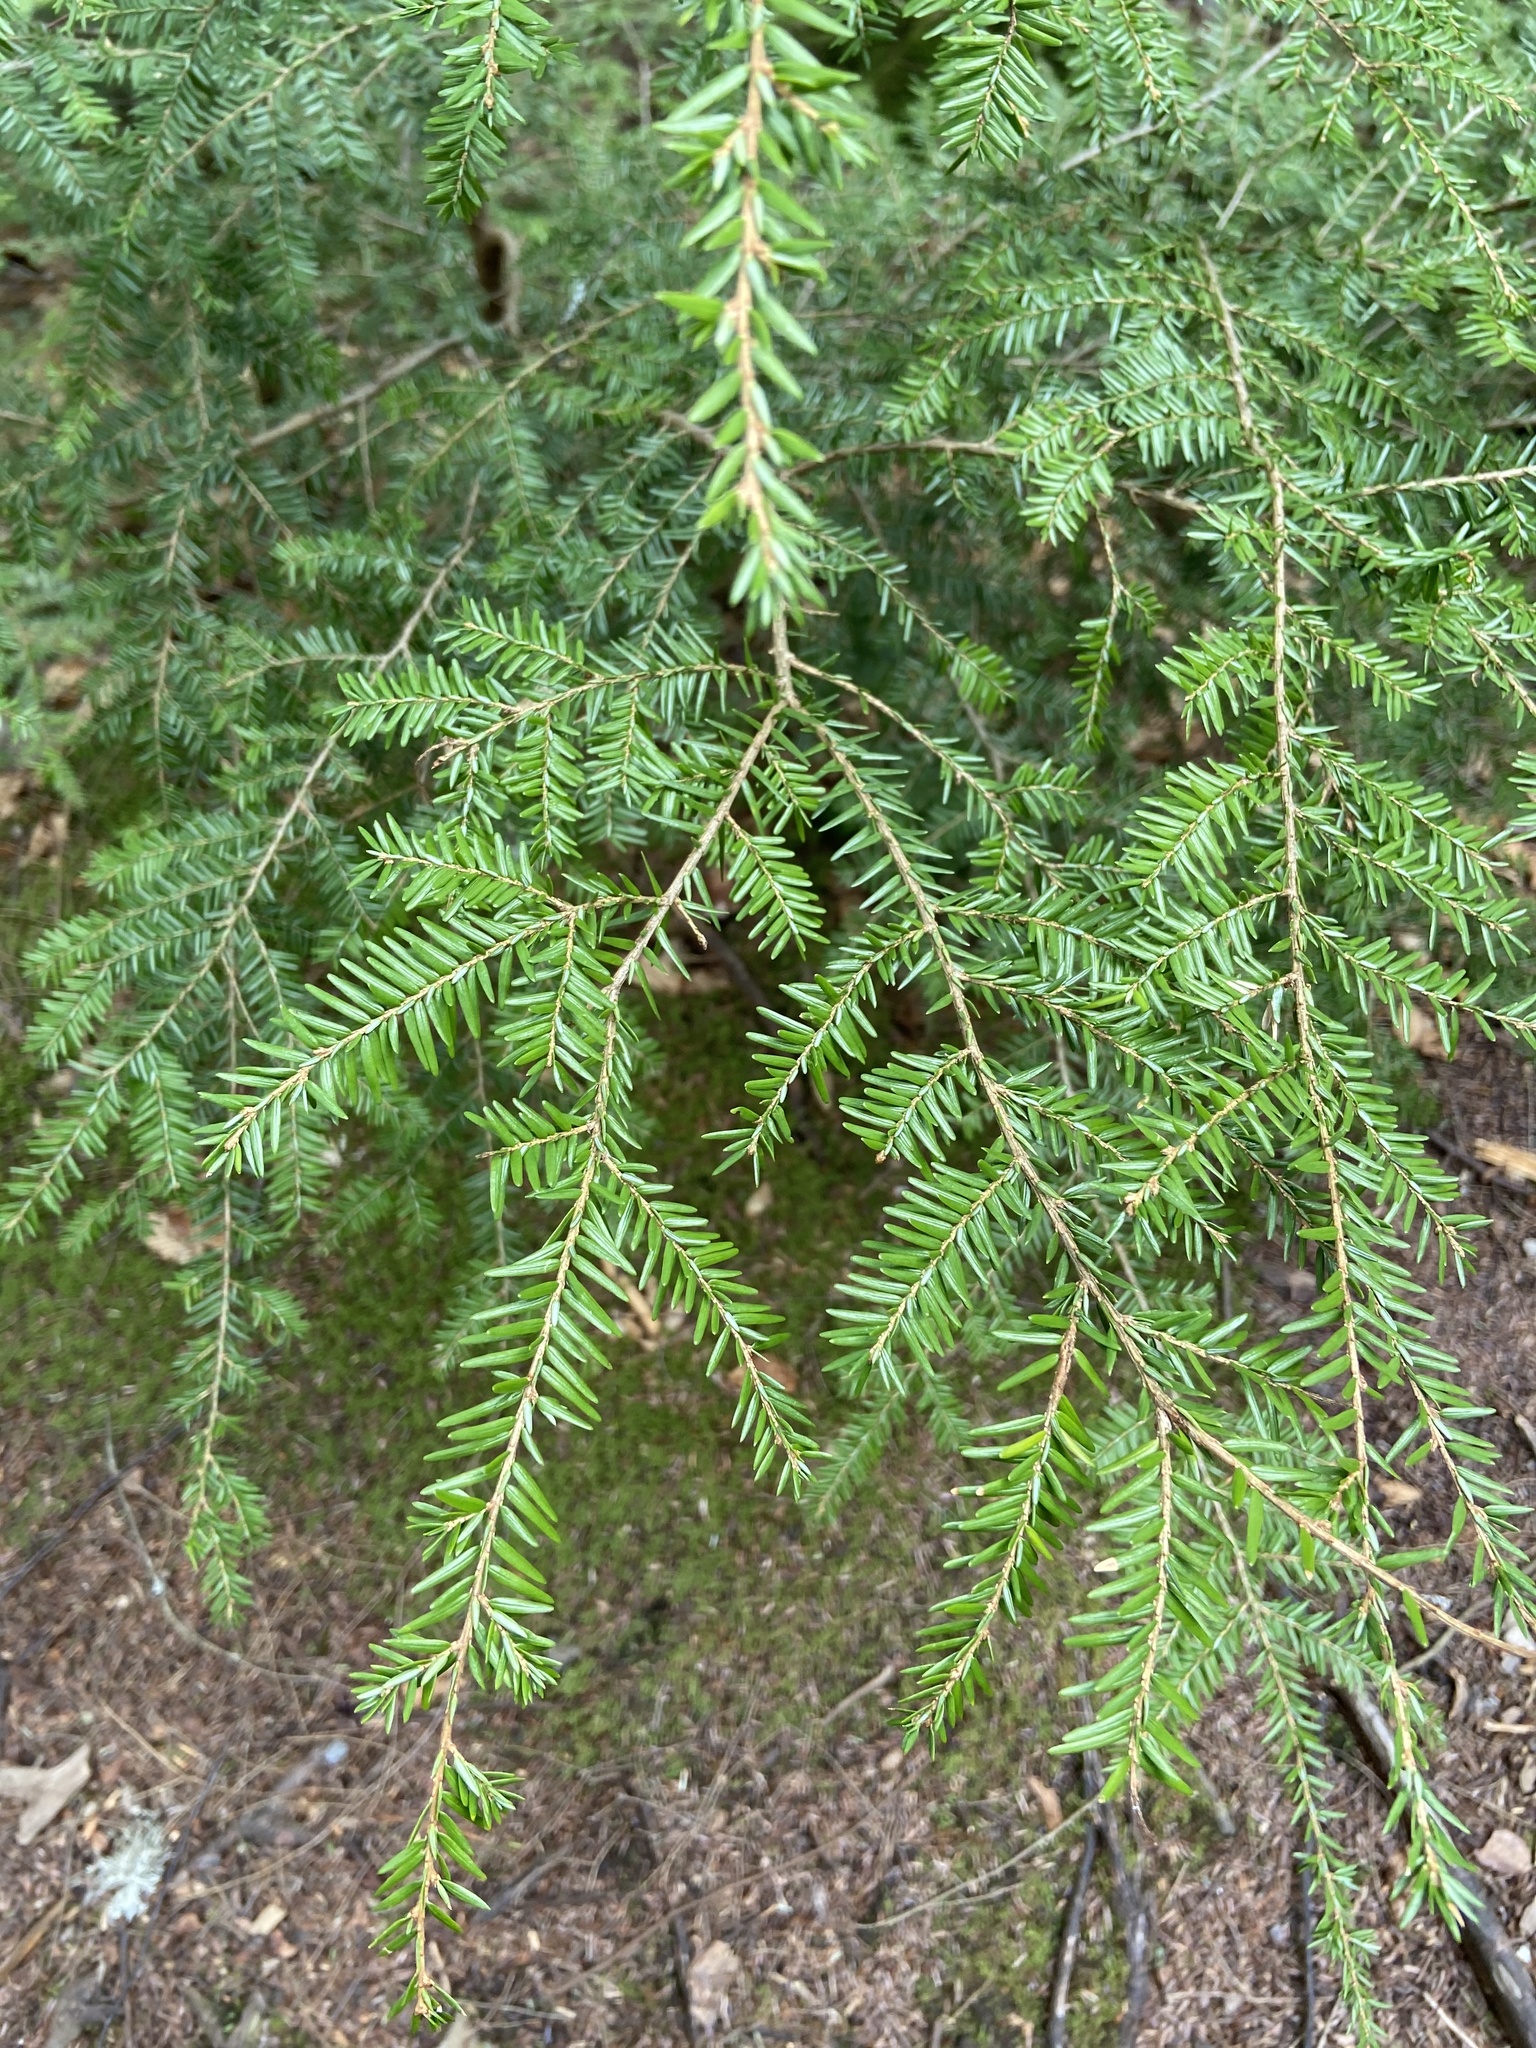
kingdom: Plantae
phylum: Tracheophyta
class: Pinopsida
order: Pinales
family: Pinaceae
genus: Tsuga
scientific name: Tsuga canadensis
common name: Eastern hemlock
